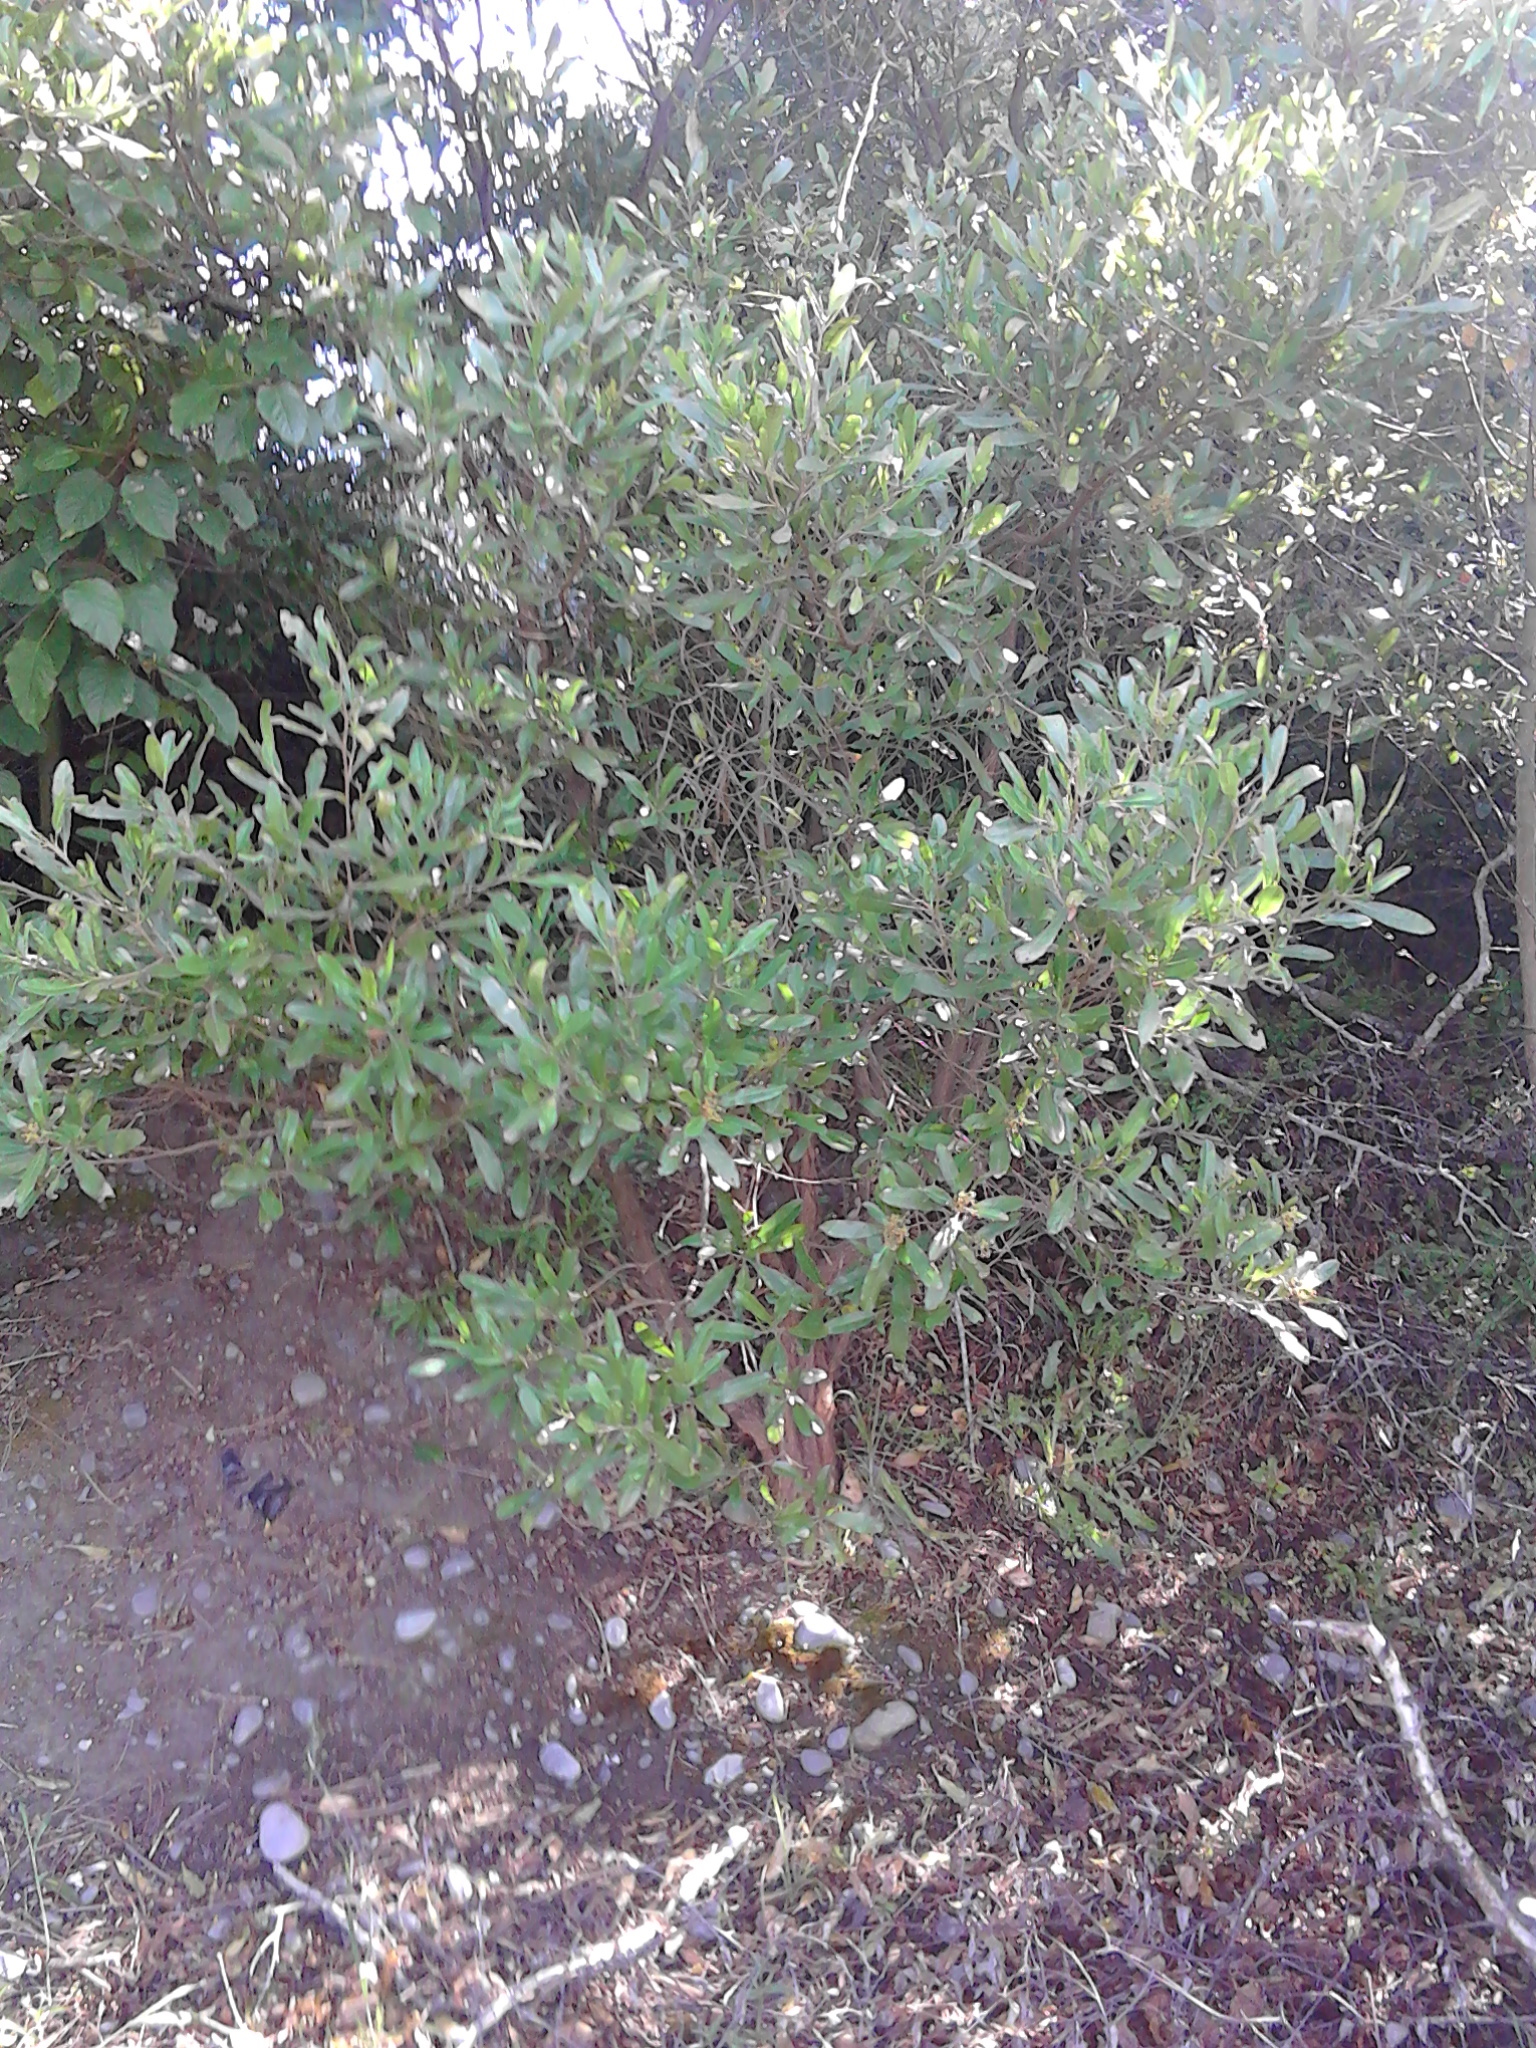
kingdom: Plantae
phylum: Tracheophyta
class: Magnoliopsida
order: Sapindales
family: Sapindaceae
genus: Dodonaea
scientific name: Dodonaea viscosa
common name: Hopbush
